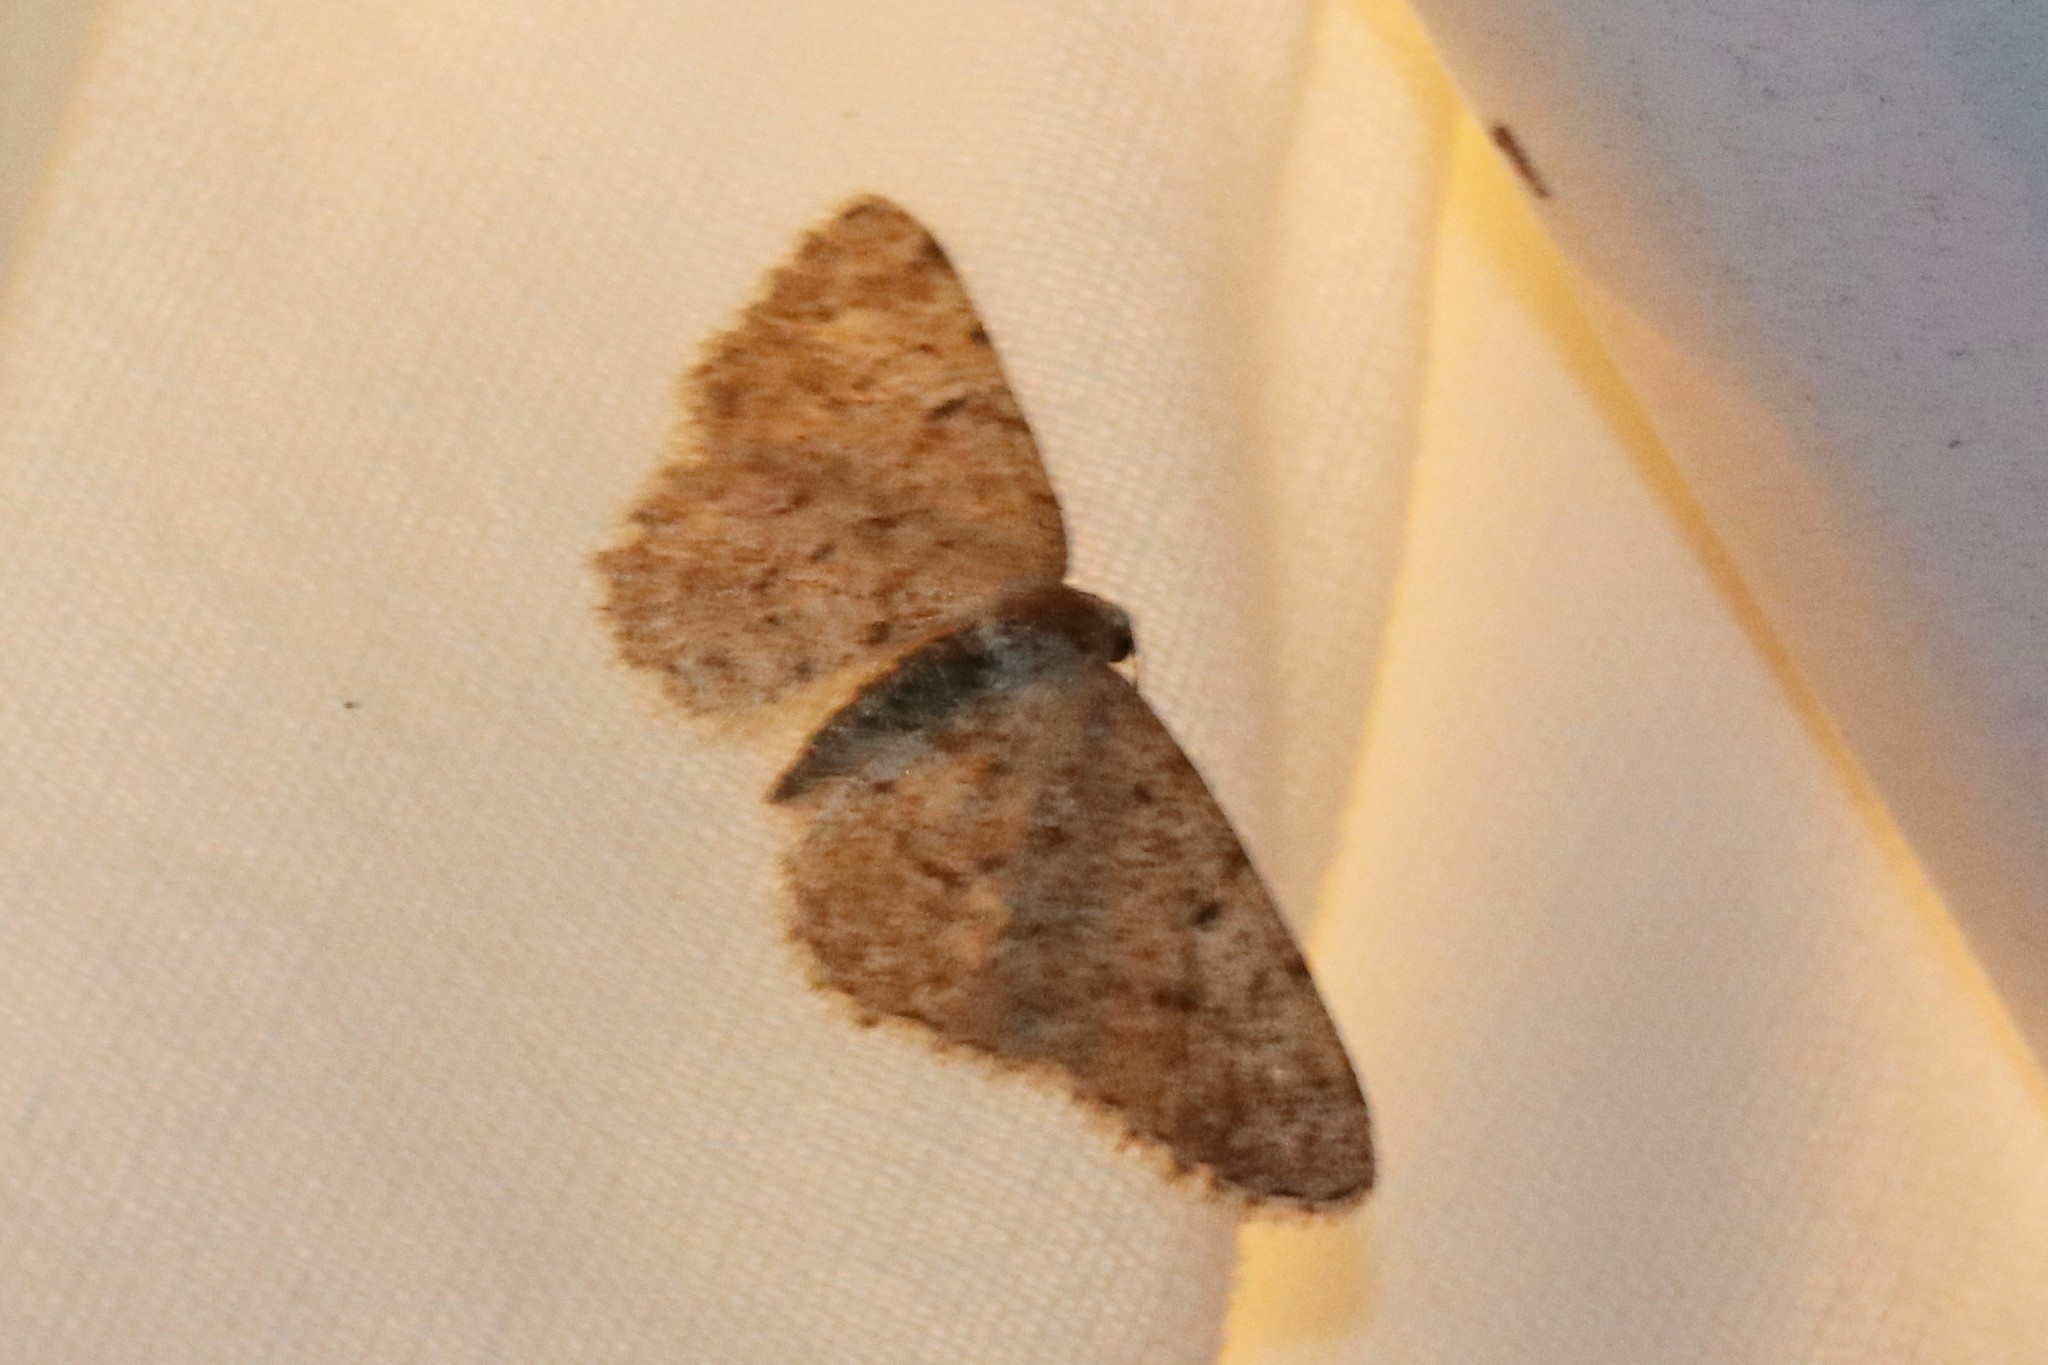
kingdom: Animalia
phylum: Arthropoda
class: Insecta
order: Lepidoptera
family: Geometridae
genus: Aethalura
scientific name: Aethalura intertexta
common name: Four-barred gray
